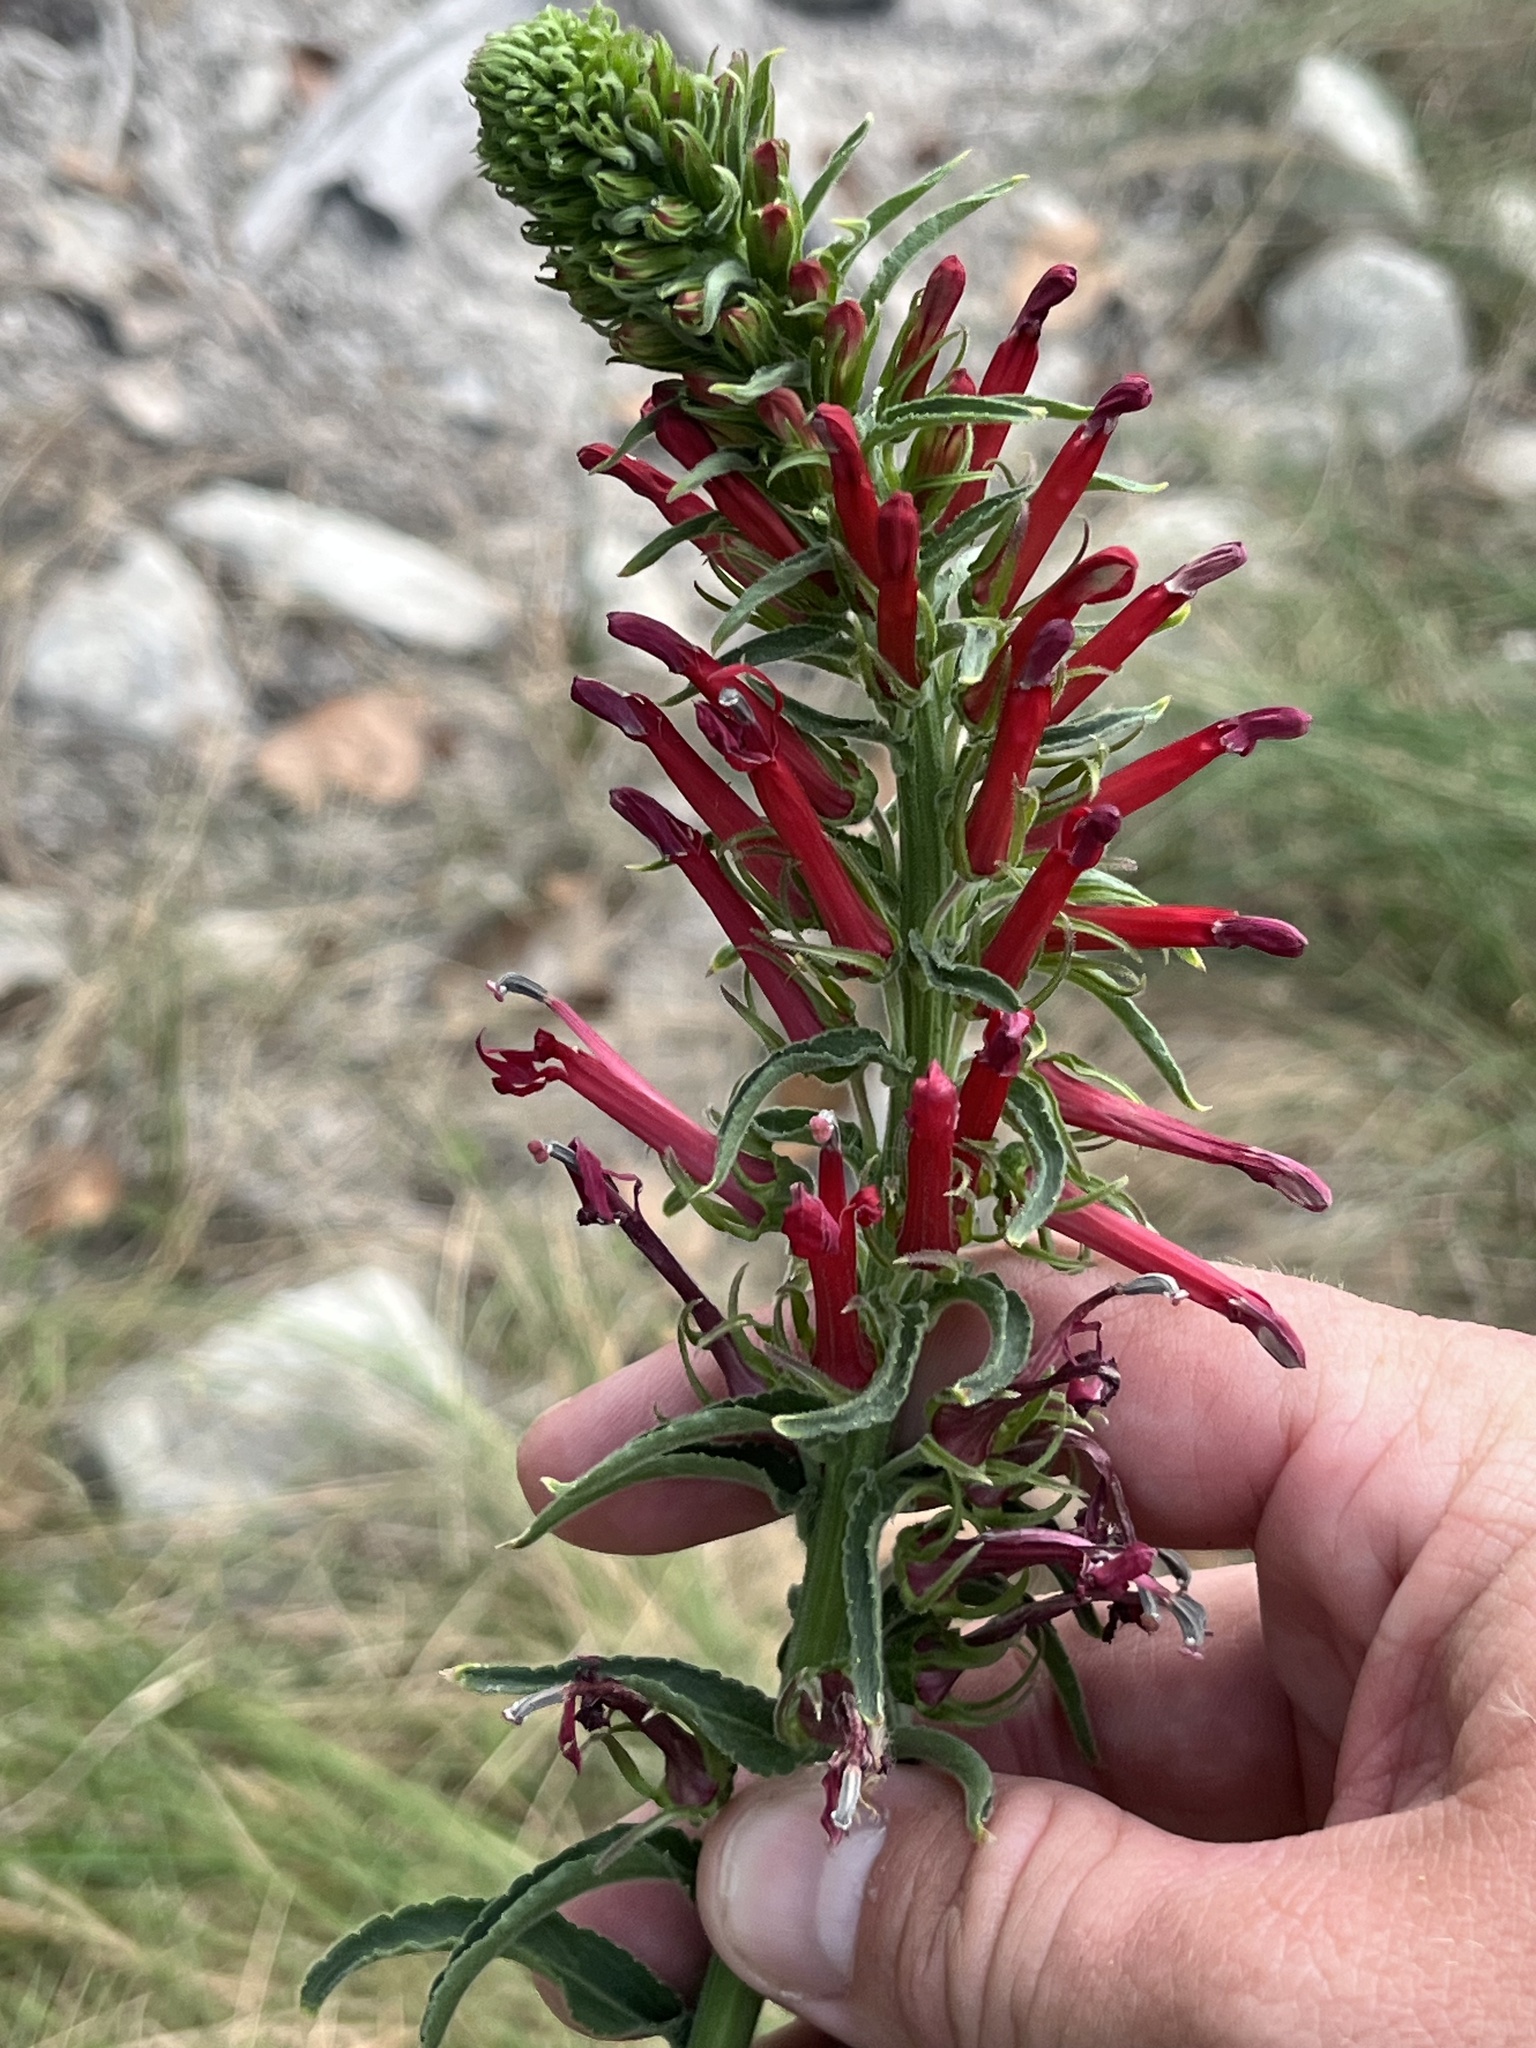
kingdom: Plantae
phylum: Tracheophyta
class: Magnoliopsida
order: Asterales
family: Campanulaceae
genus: Lobelia
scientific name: Lobelia cardinalis
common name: Cardinal flower
